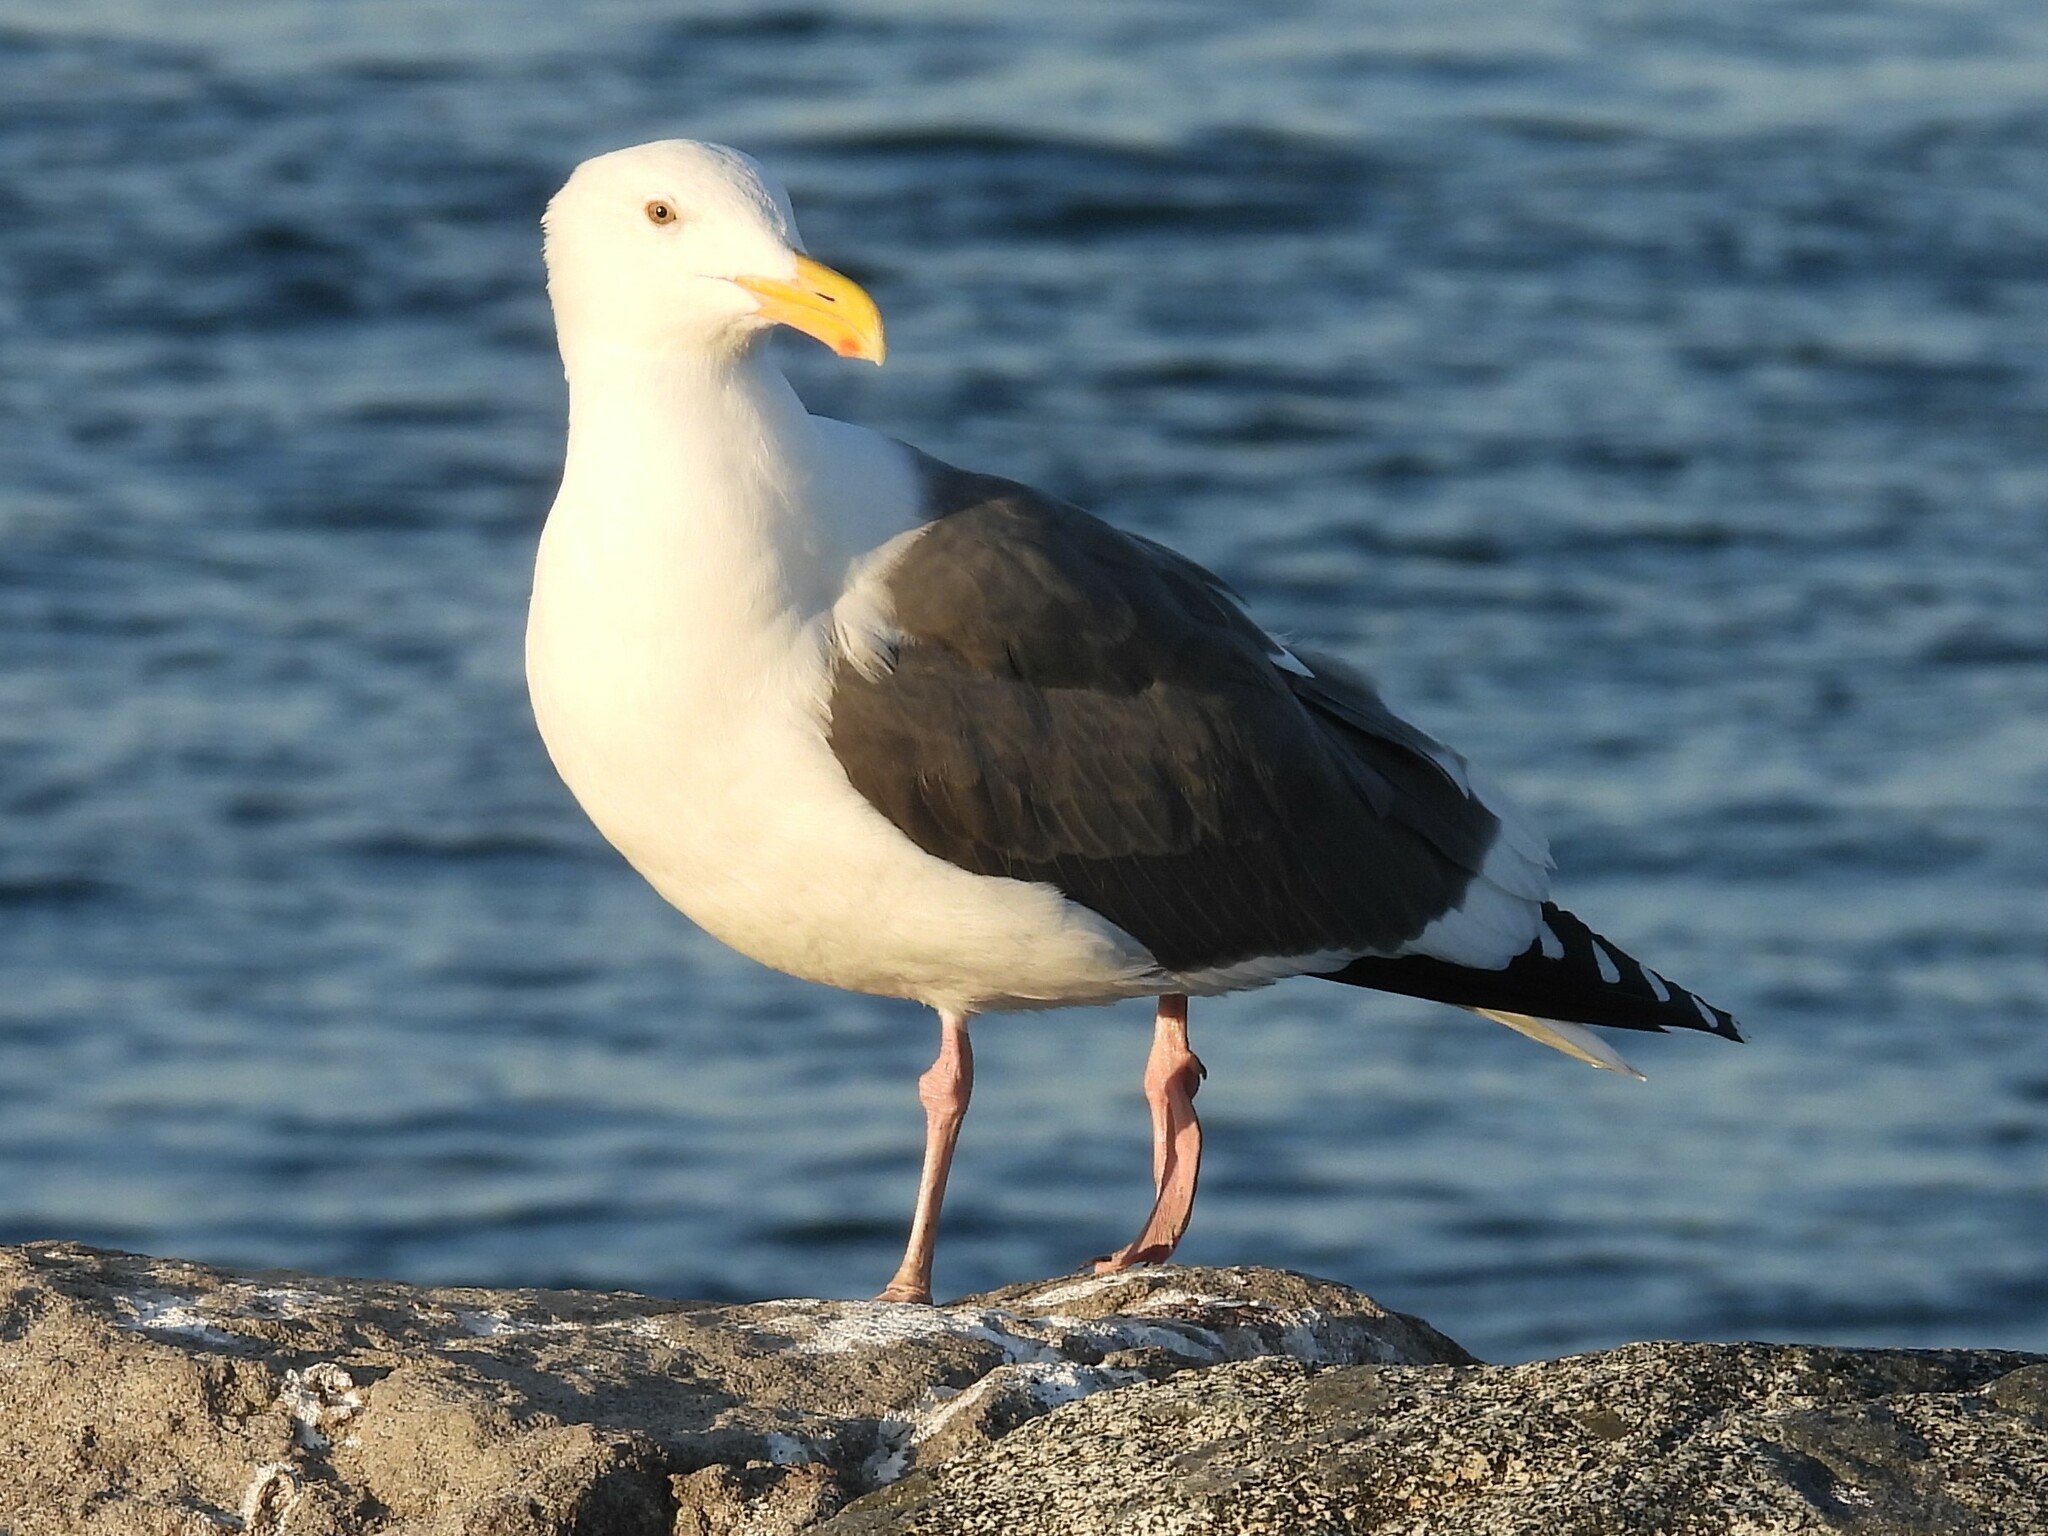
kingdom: Animalia
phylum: Chordata
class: Aves
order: Charadriiformes
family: Laridae
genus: Larus
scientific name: Larus occidentalis
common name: Western gull
